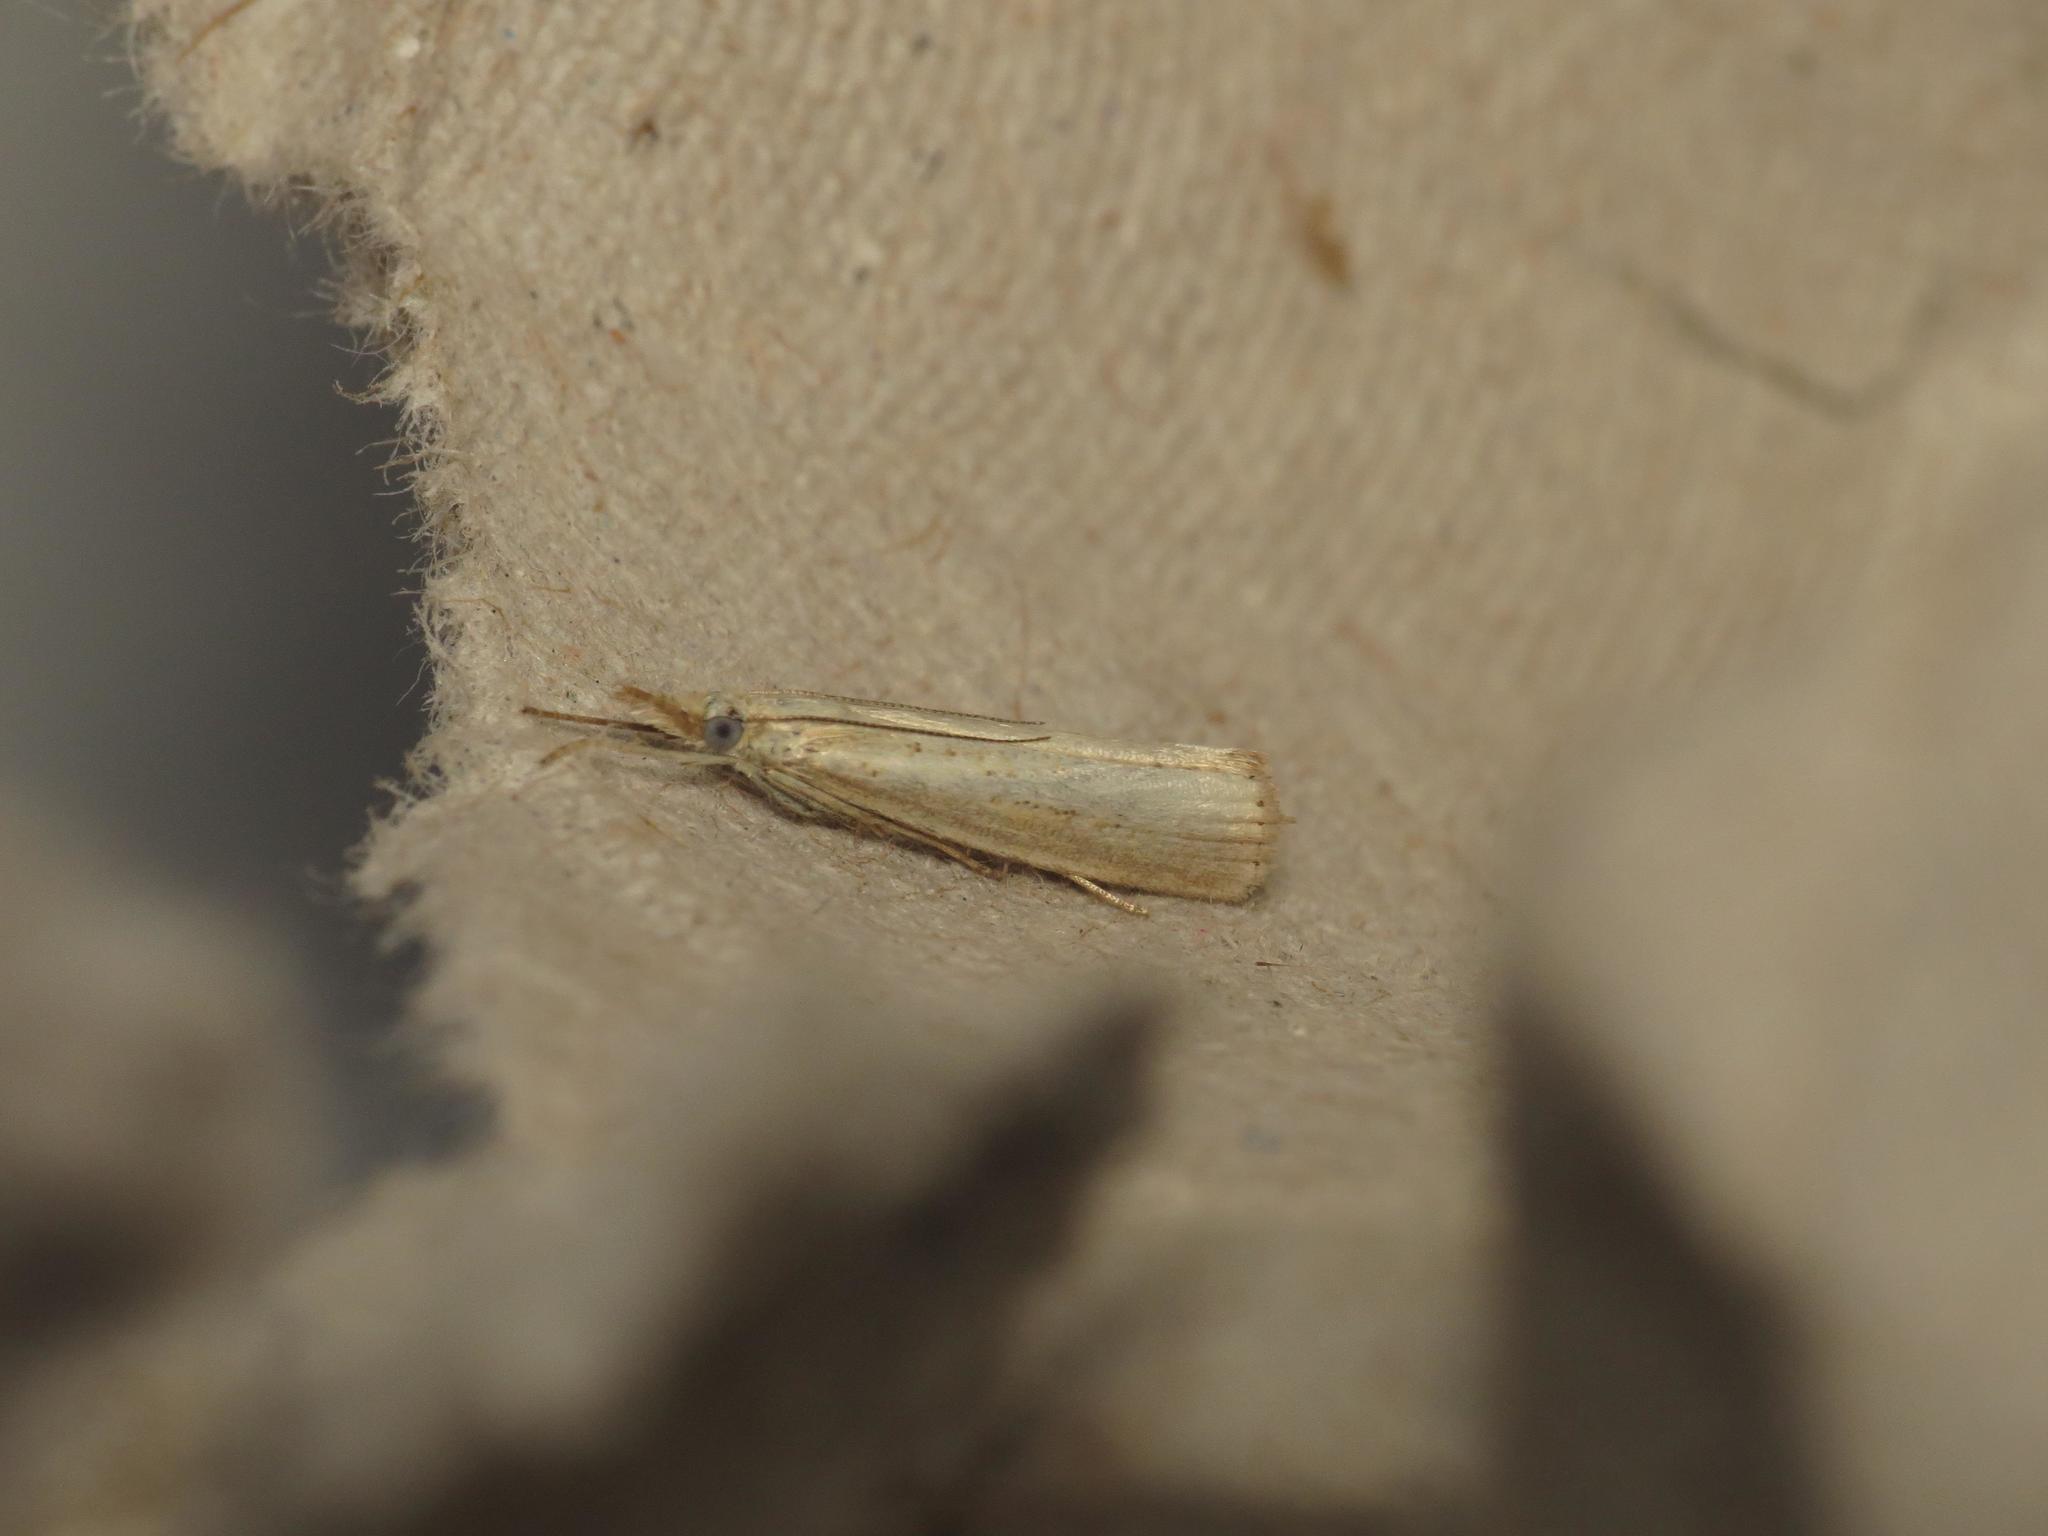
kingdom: Animalia
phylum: Arthropoda
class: Insecta
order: Lepidoptera
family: Crambidae
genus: Agriphila
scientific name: Agriphila straminella
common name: Straw grass-veneer
